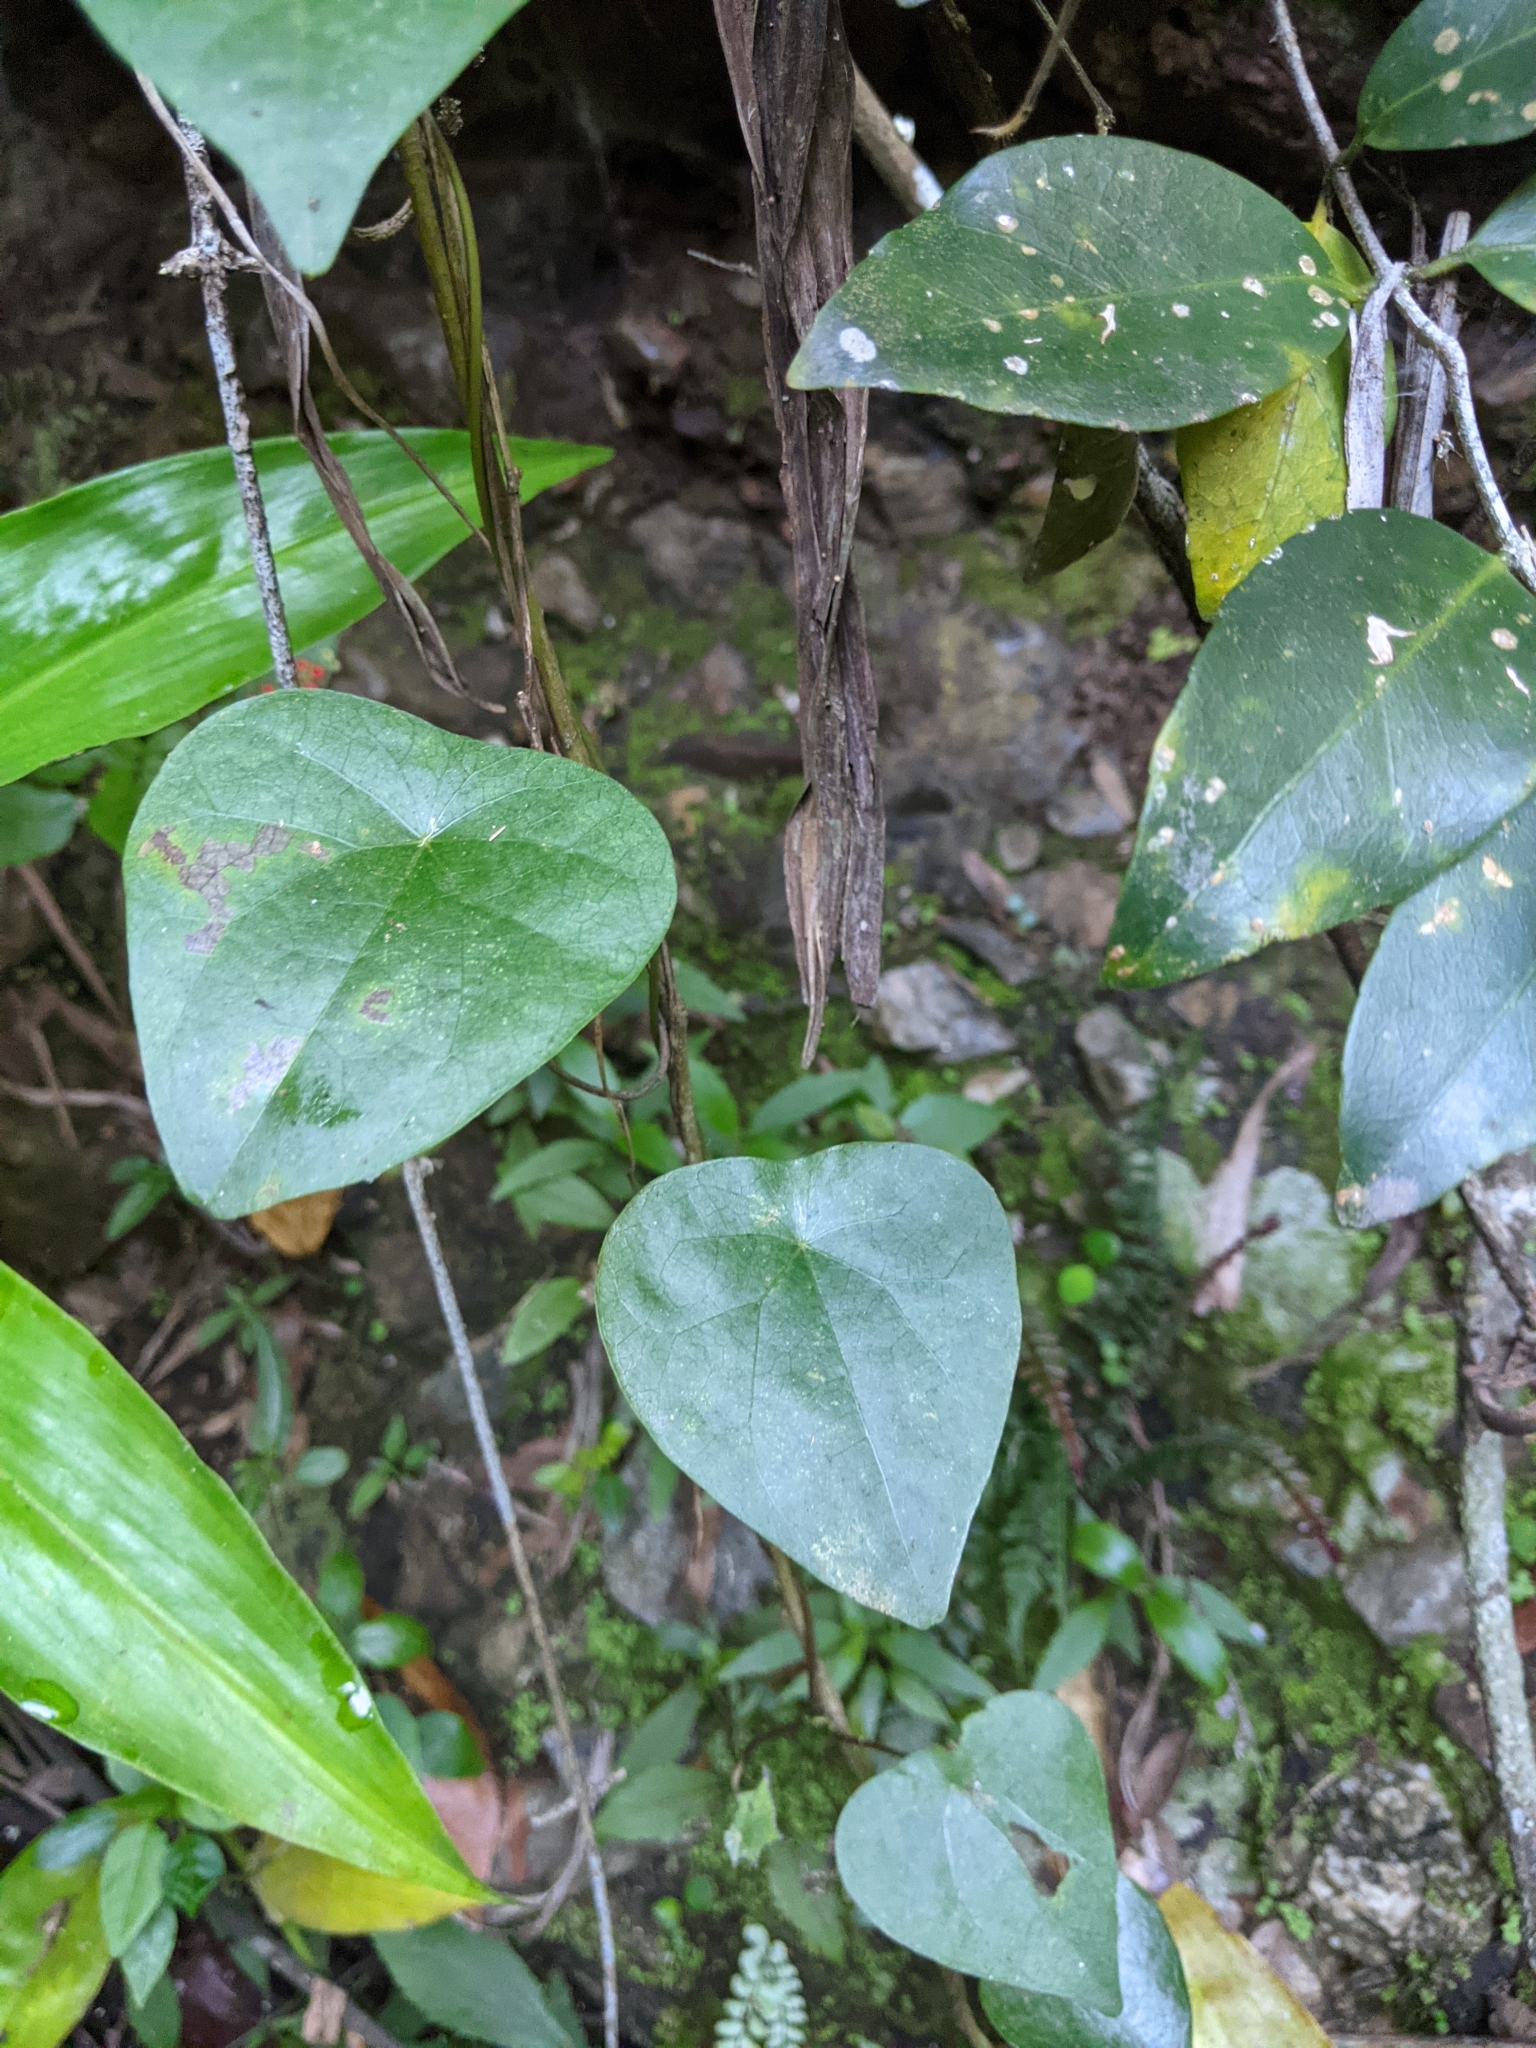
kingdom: Plantae
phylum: Tracheophyta
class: Magnoliopsida
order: Ranunculales
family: Menispermaceae
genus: Stephania
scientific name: Stephania japonica
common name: Snake vine
